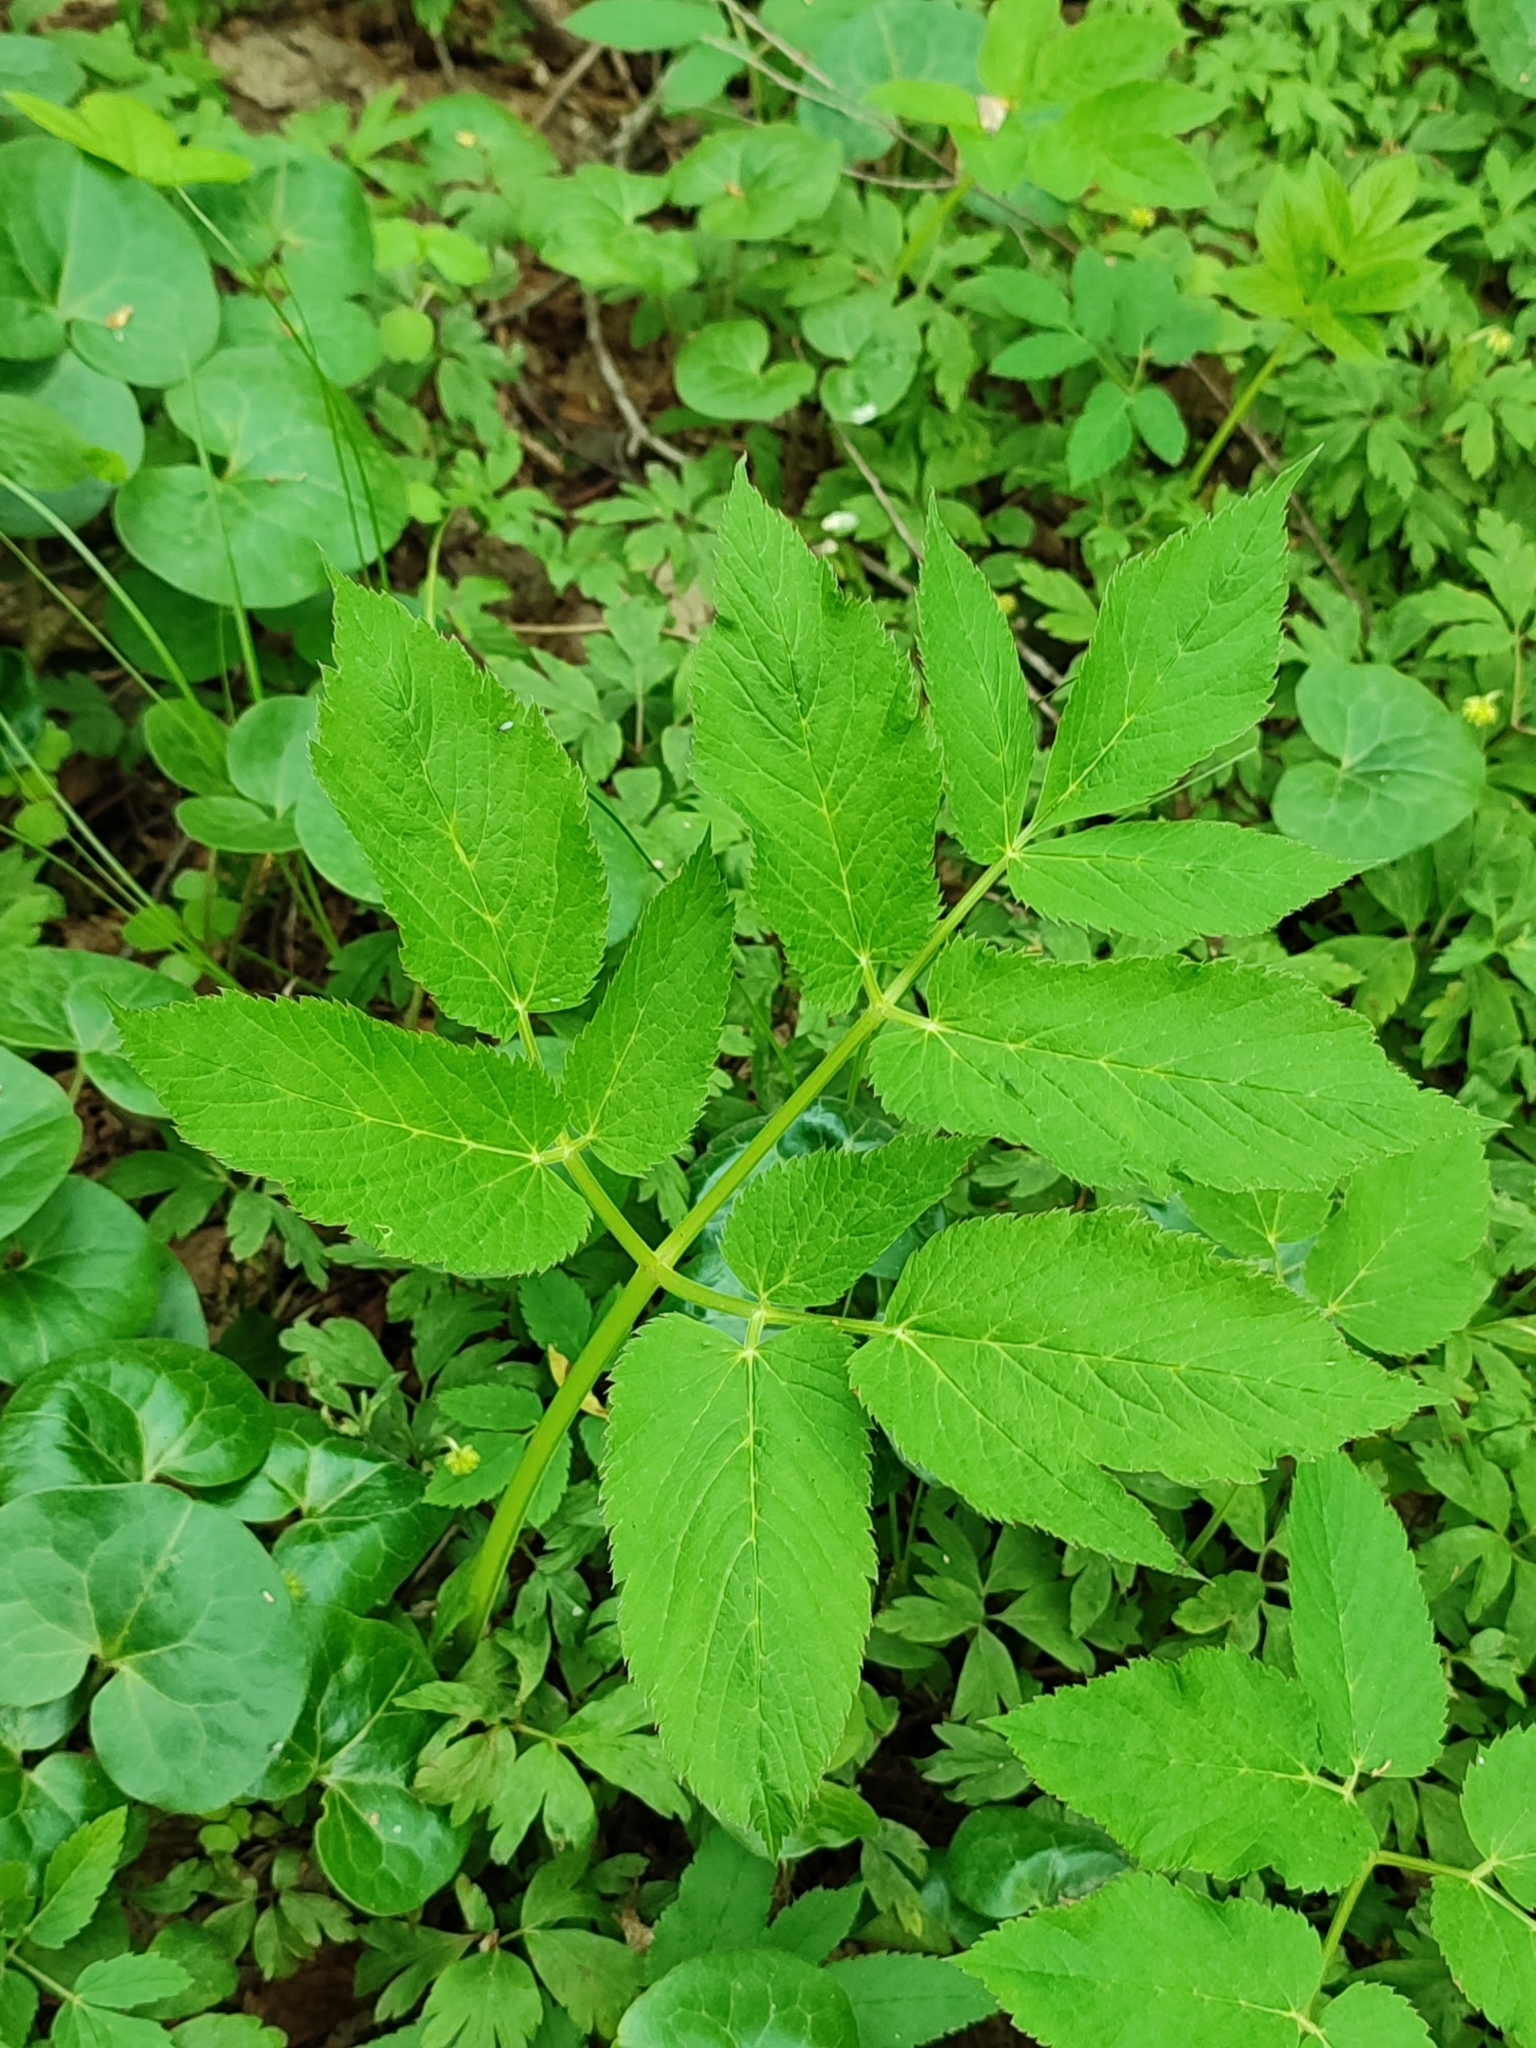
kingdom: Plantae
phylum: Tracheophyta
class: Magnoliopsida
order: Apiales
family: Apiaceae
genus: Aegopodium
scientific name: Aegopodium podagraria
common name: Ground-elder
